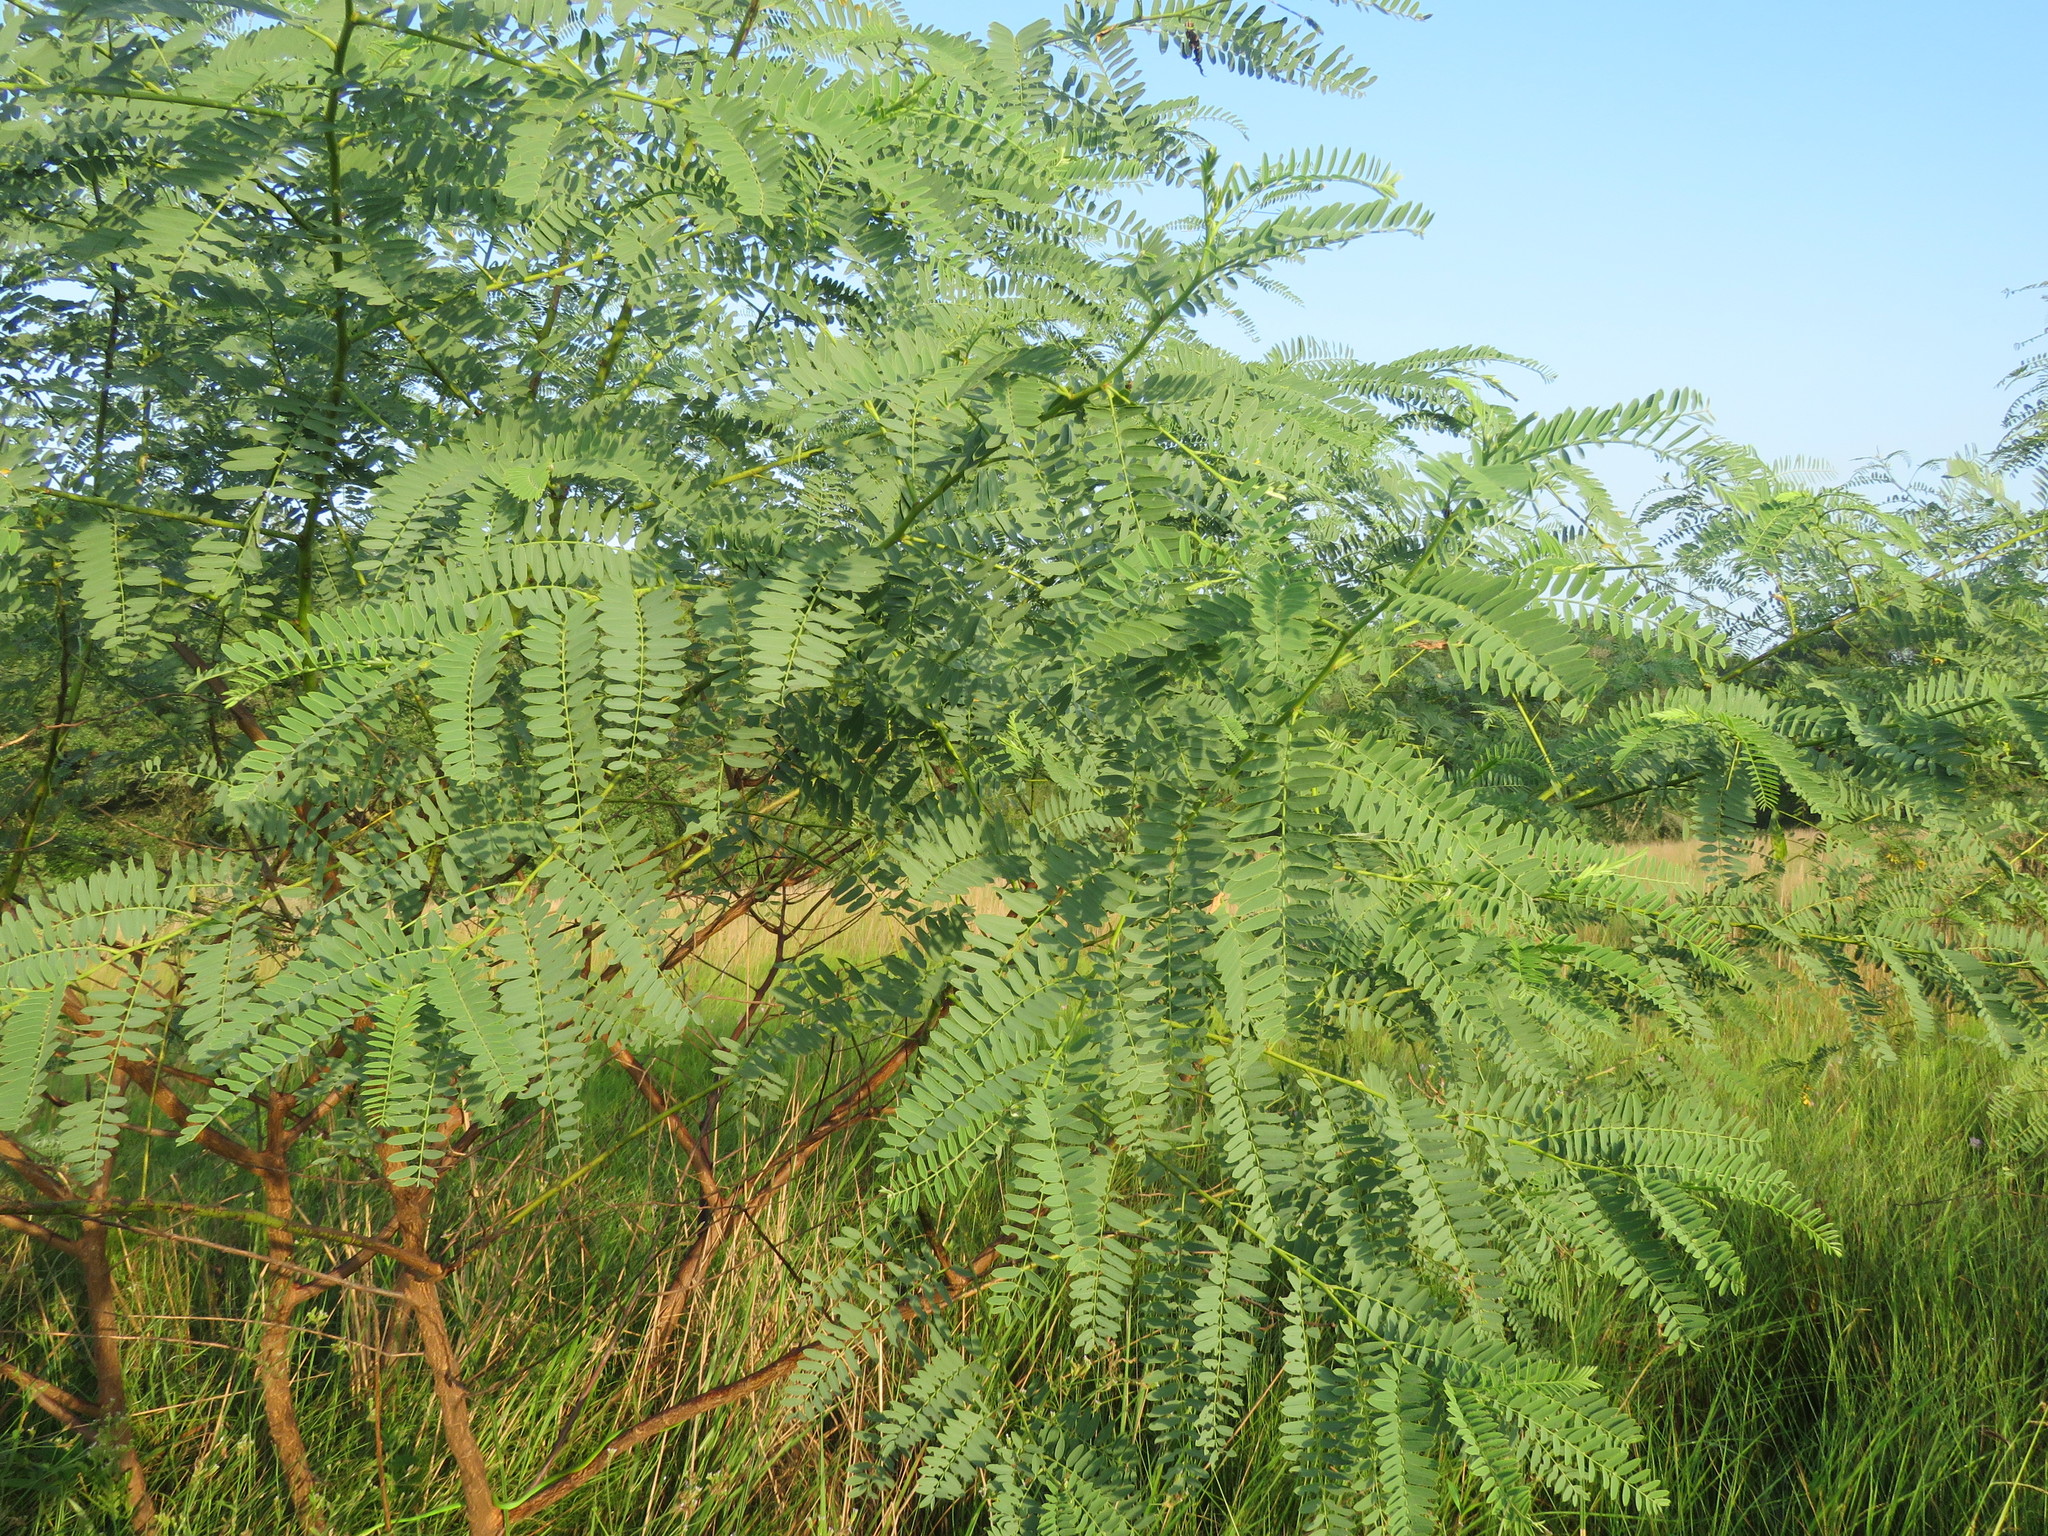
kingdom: Plantae
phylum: Tracheophyta
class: Magnoliopsida
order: Fabales
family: Fabaceae
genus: Sesbania
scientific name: Sesbania drummondii
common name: Poison-bean
